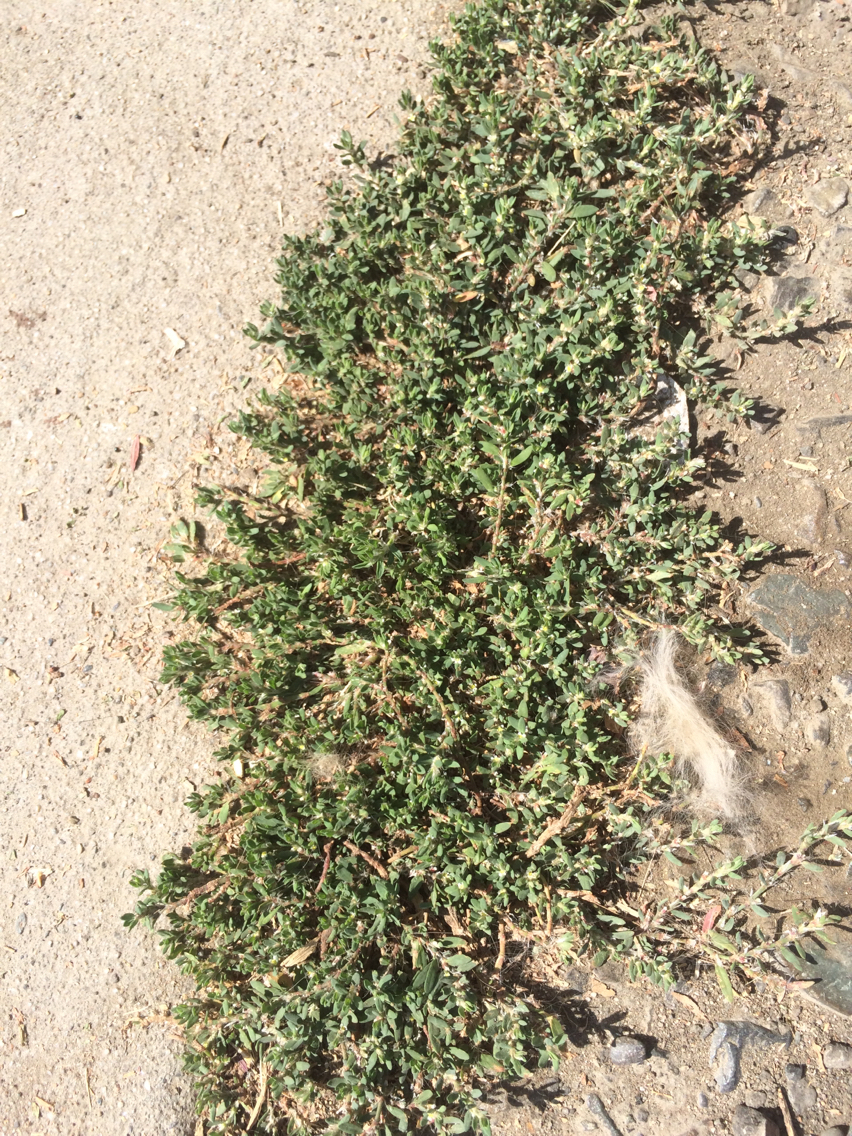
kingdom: Plantae
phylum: Tracheophyta
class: Magnoliopsida
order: Caryophyllales
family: Polygonaceae
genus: Polygonum
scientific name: Polygonum aviculare
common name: Prostrate knotweed
